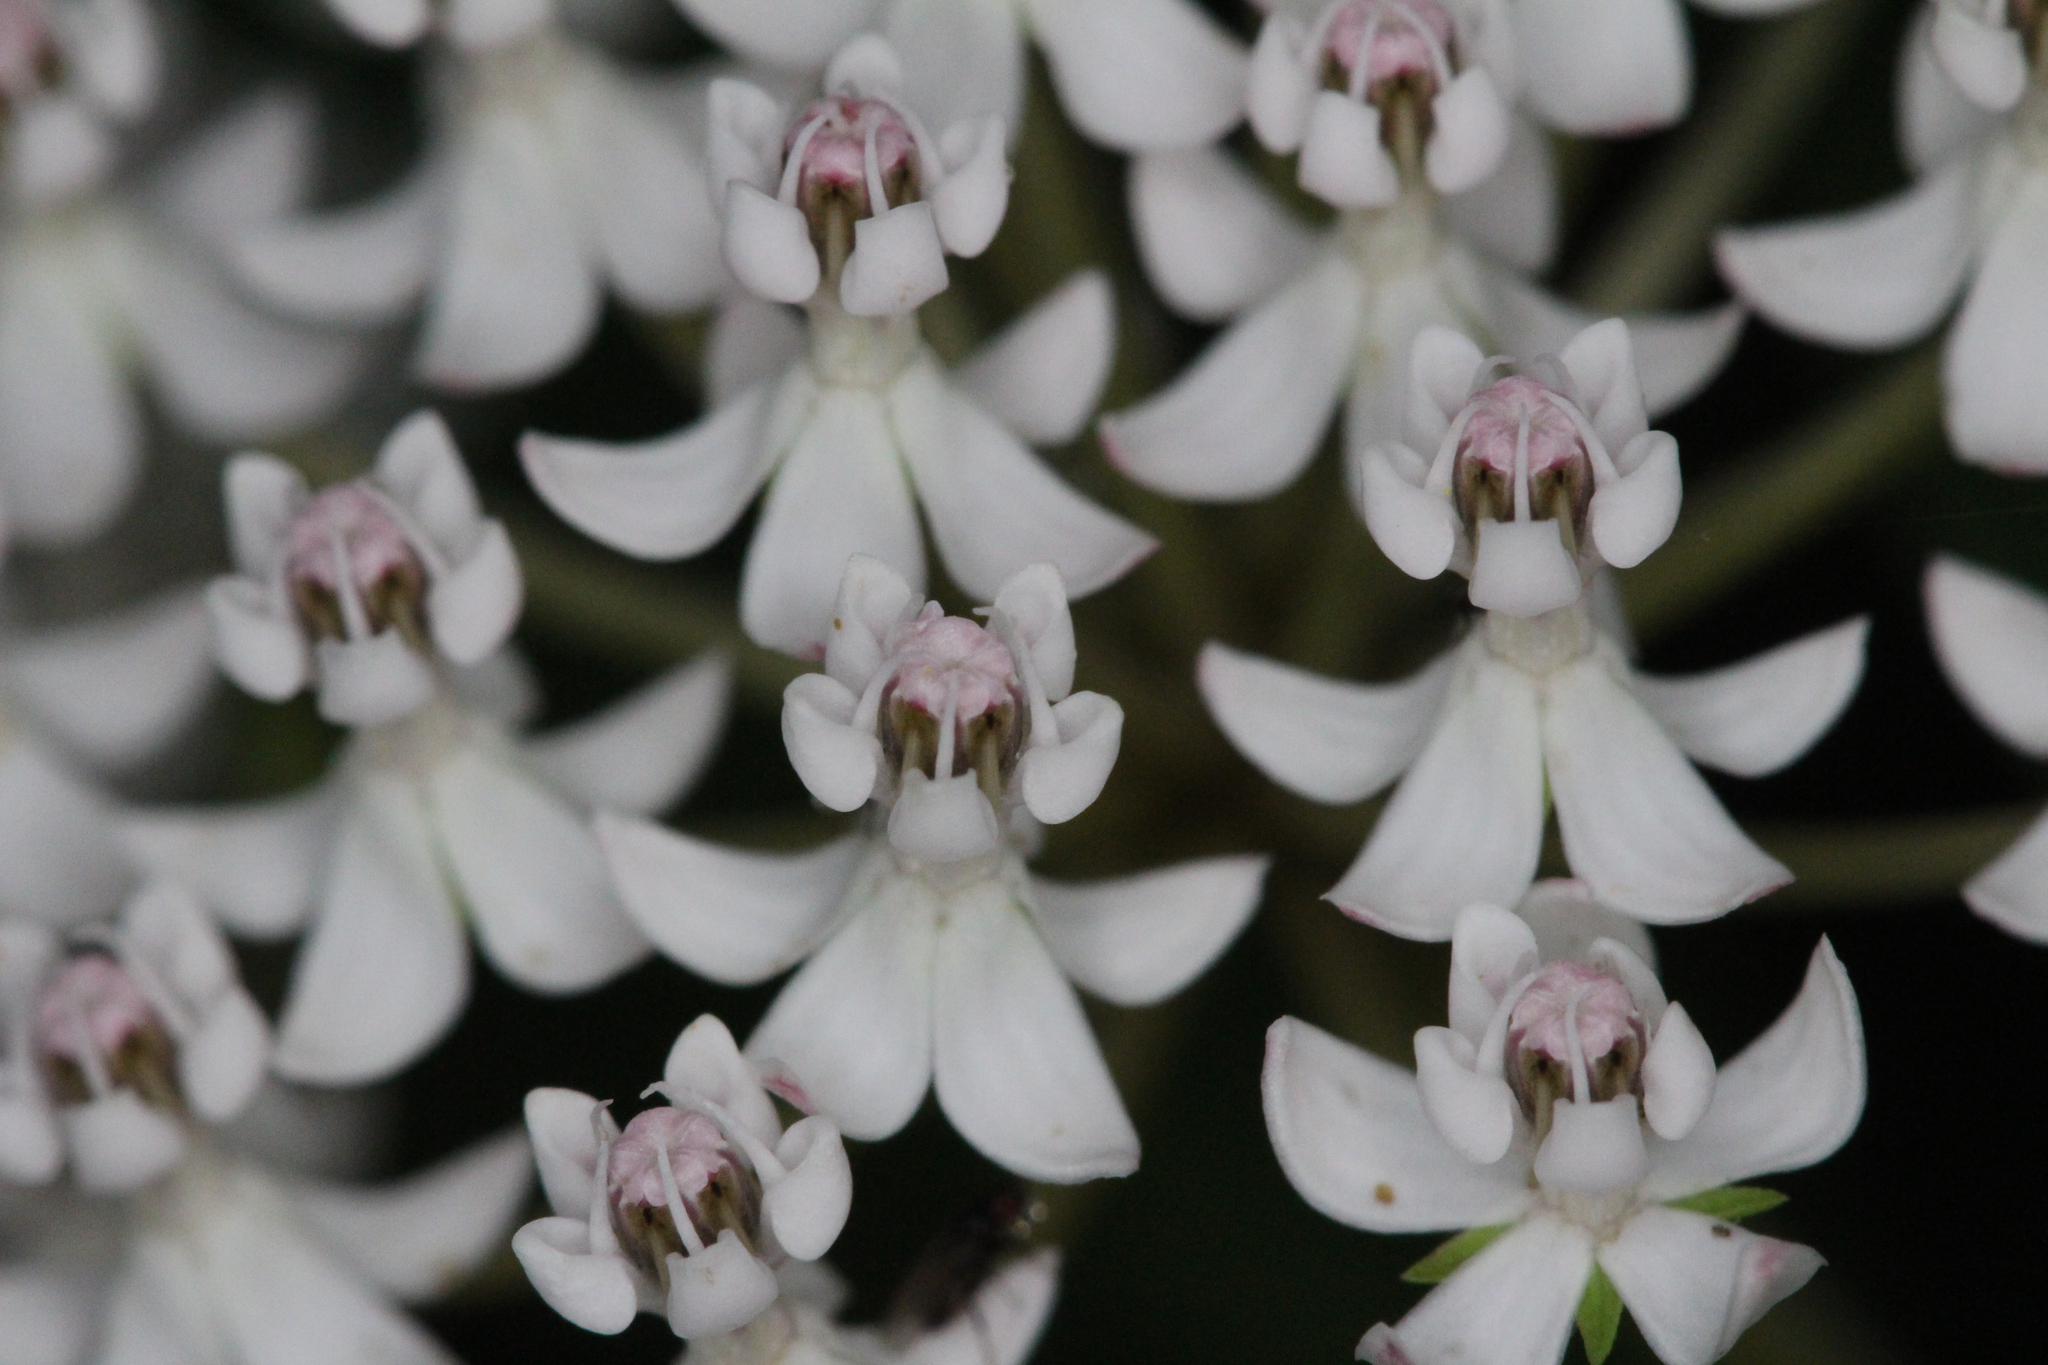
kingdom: Plantae
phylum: Tracheophyta
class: Magnoliopsida
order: Gentianales
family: Apocynaceae
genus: Asclepias
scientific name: Asclepias perennis
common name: Smooth-seed milkweed
